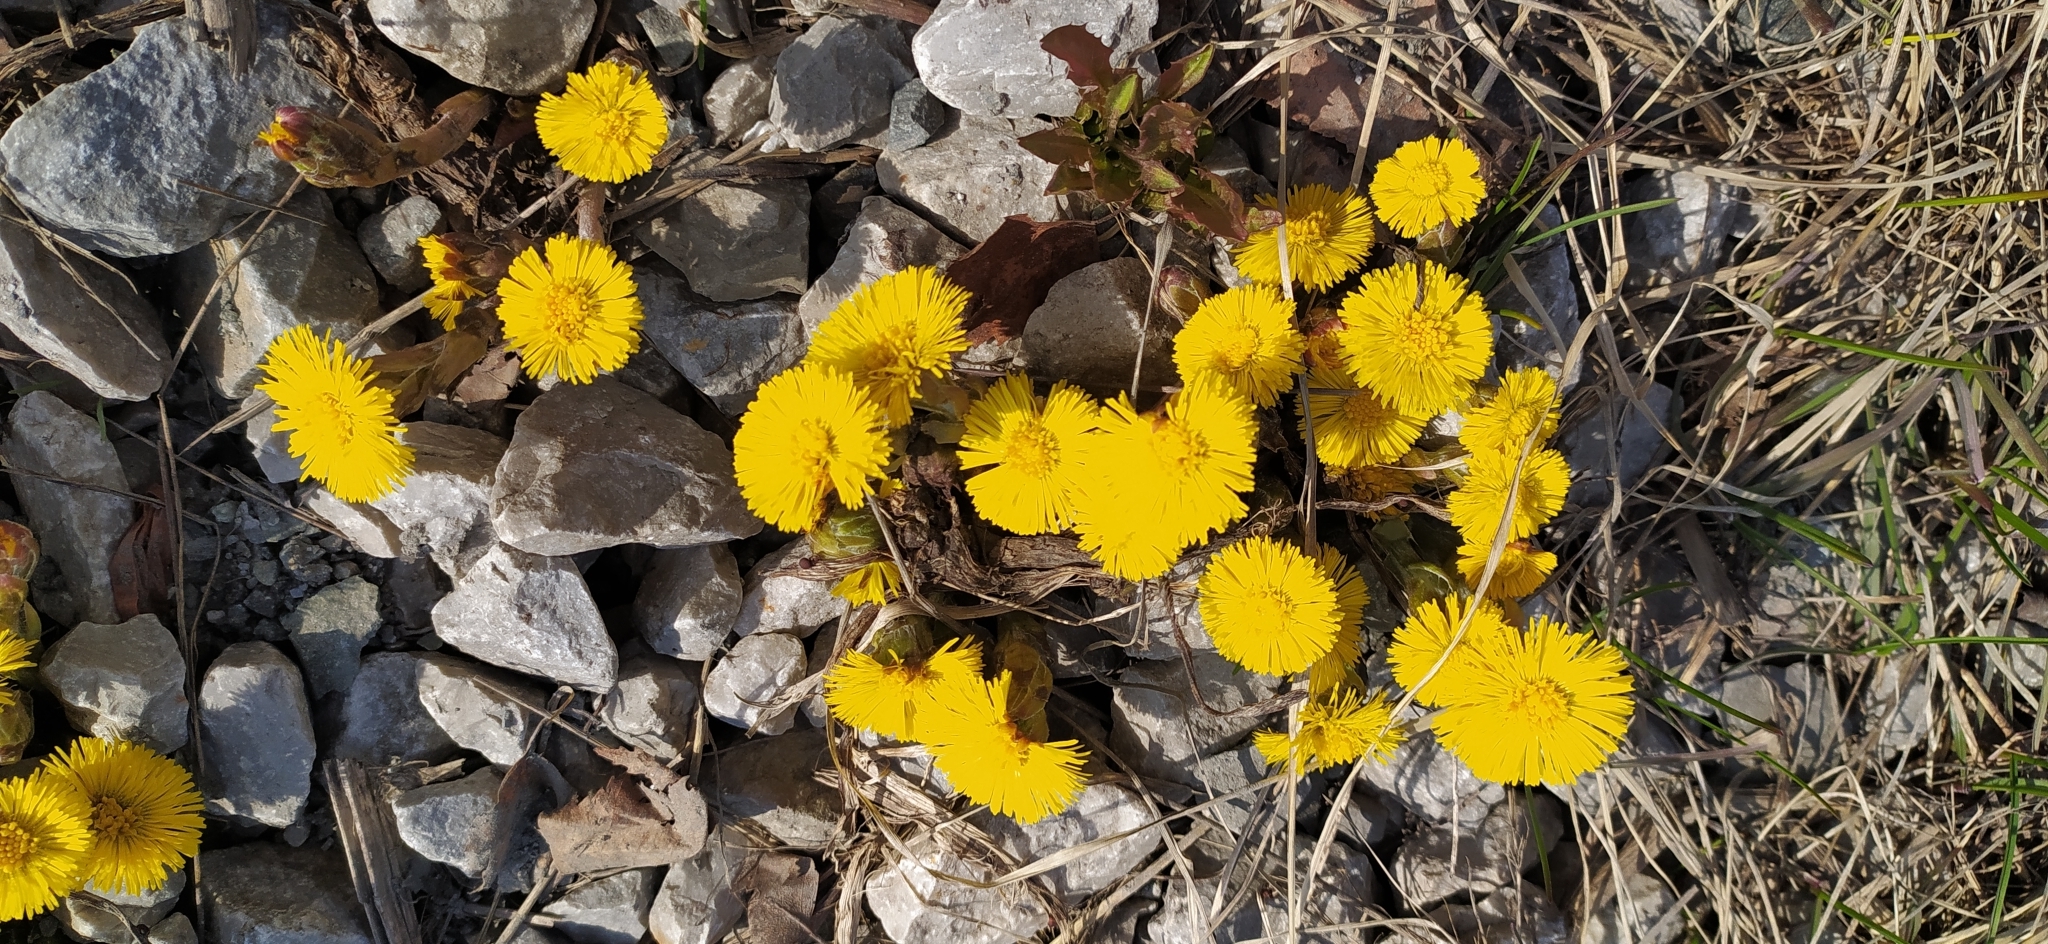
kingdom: Plantae
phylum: Tracheophyta
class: Magnoliopsida
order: Asterales
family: Asteraceae
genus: Tussilago
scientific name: Tussilago farfara
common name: Coltsfoot
